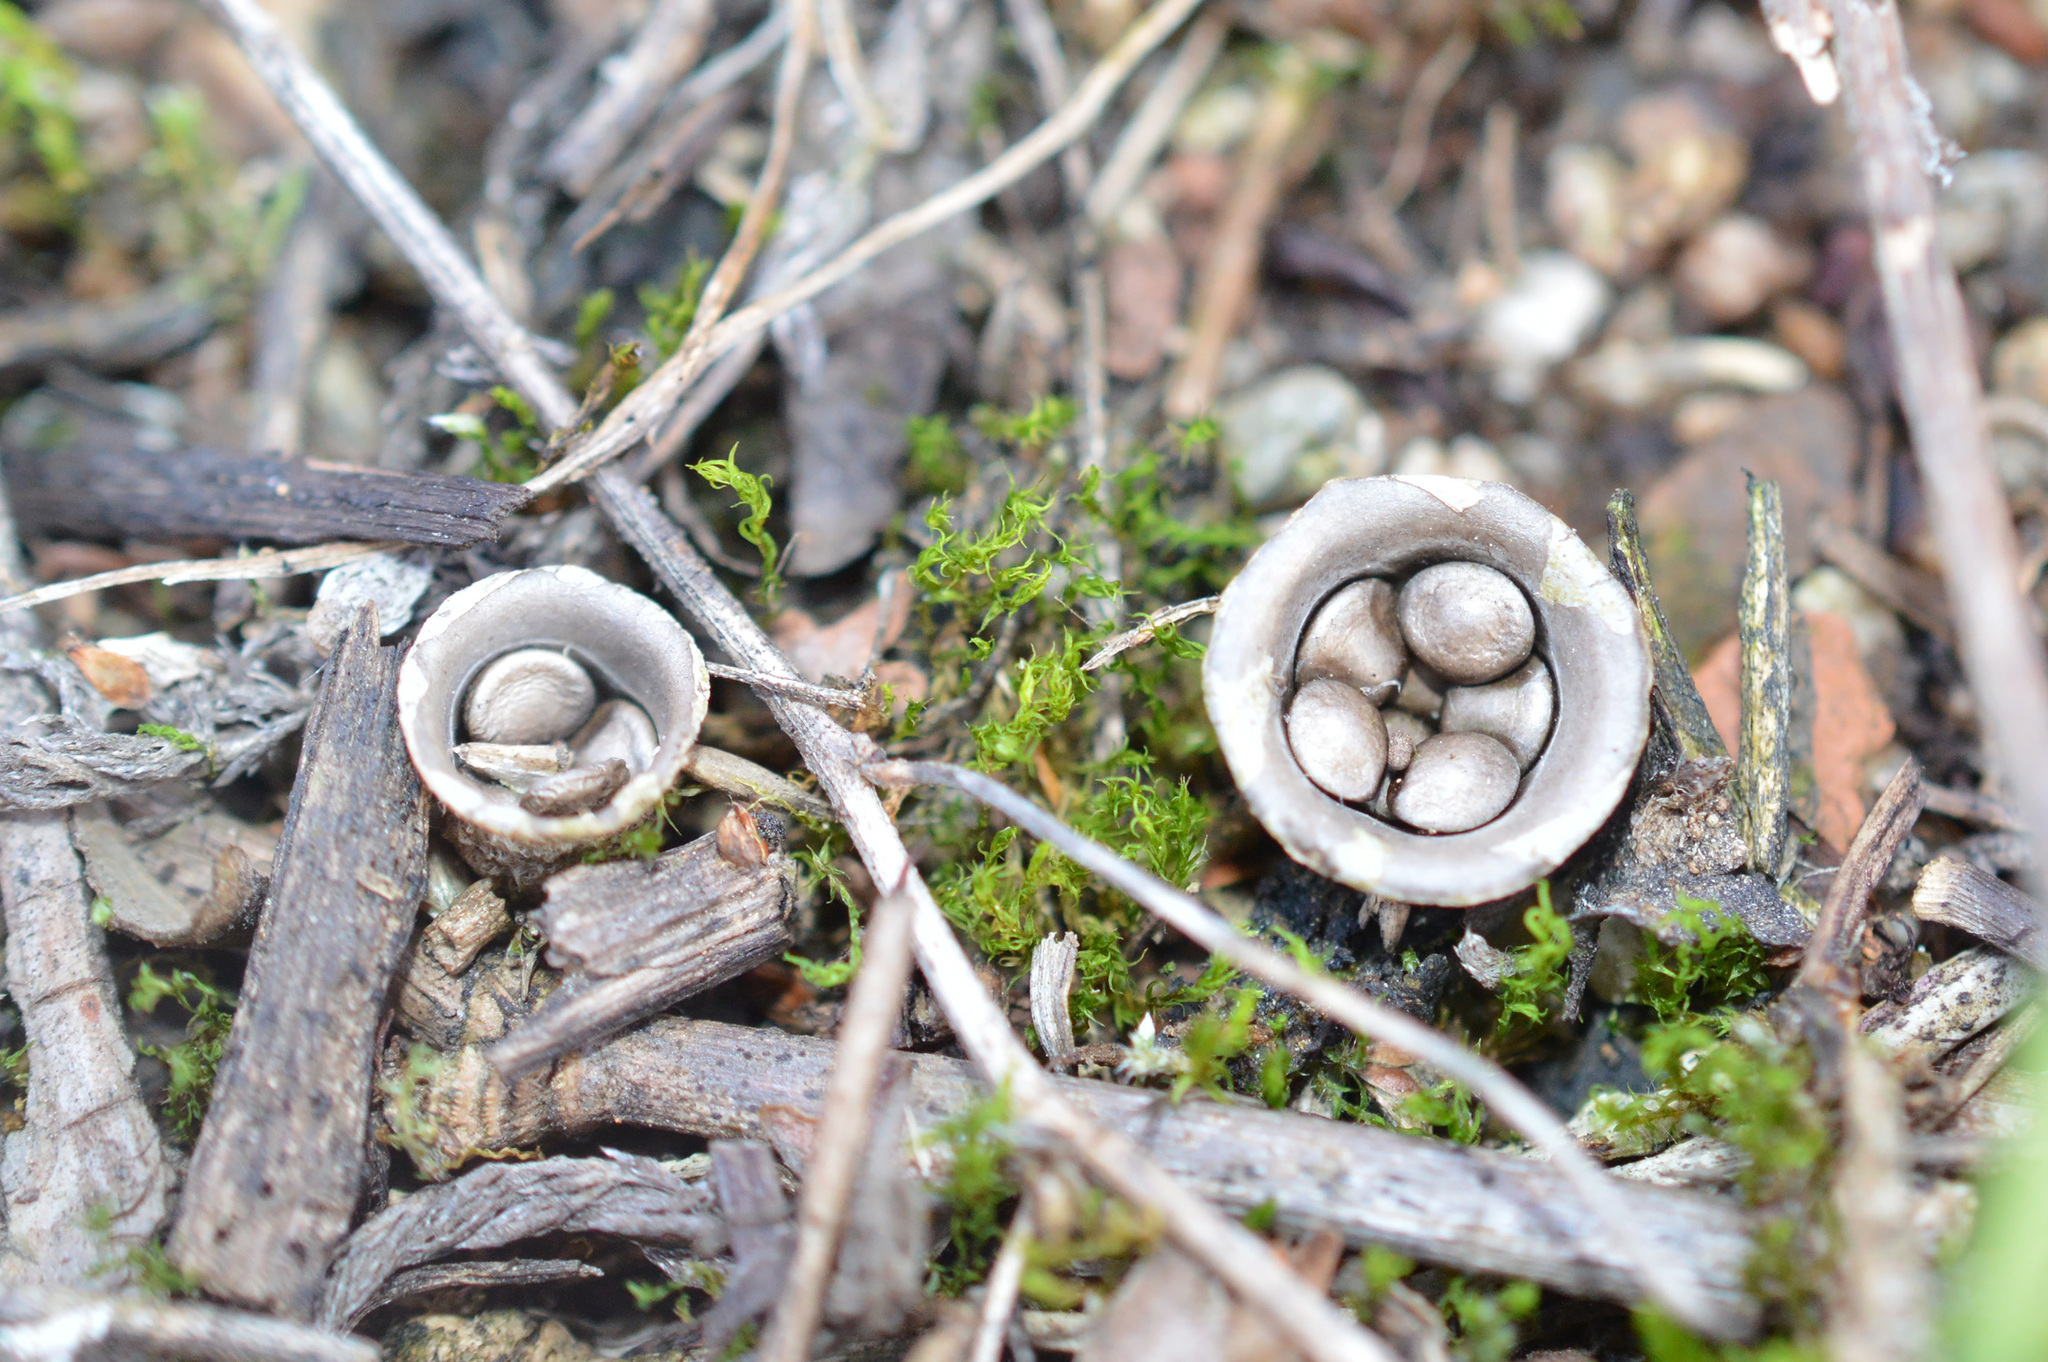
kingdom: Fungi
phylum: Basidiomycota
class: Agaricomycetes
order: Agaricales
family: Agaricaceae
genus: Cyathus
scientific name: Cyathus olla
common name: Field bird's nest
